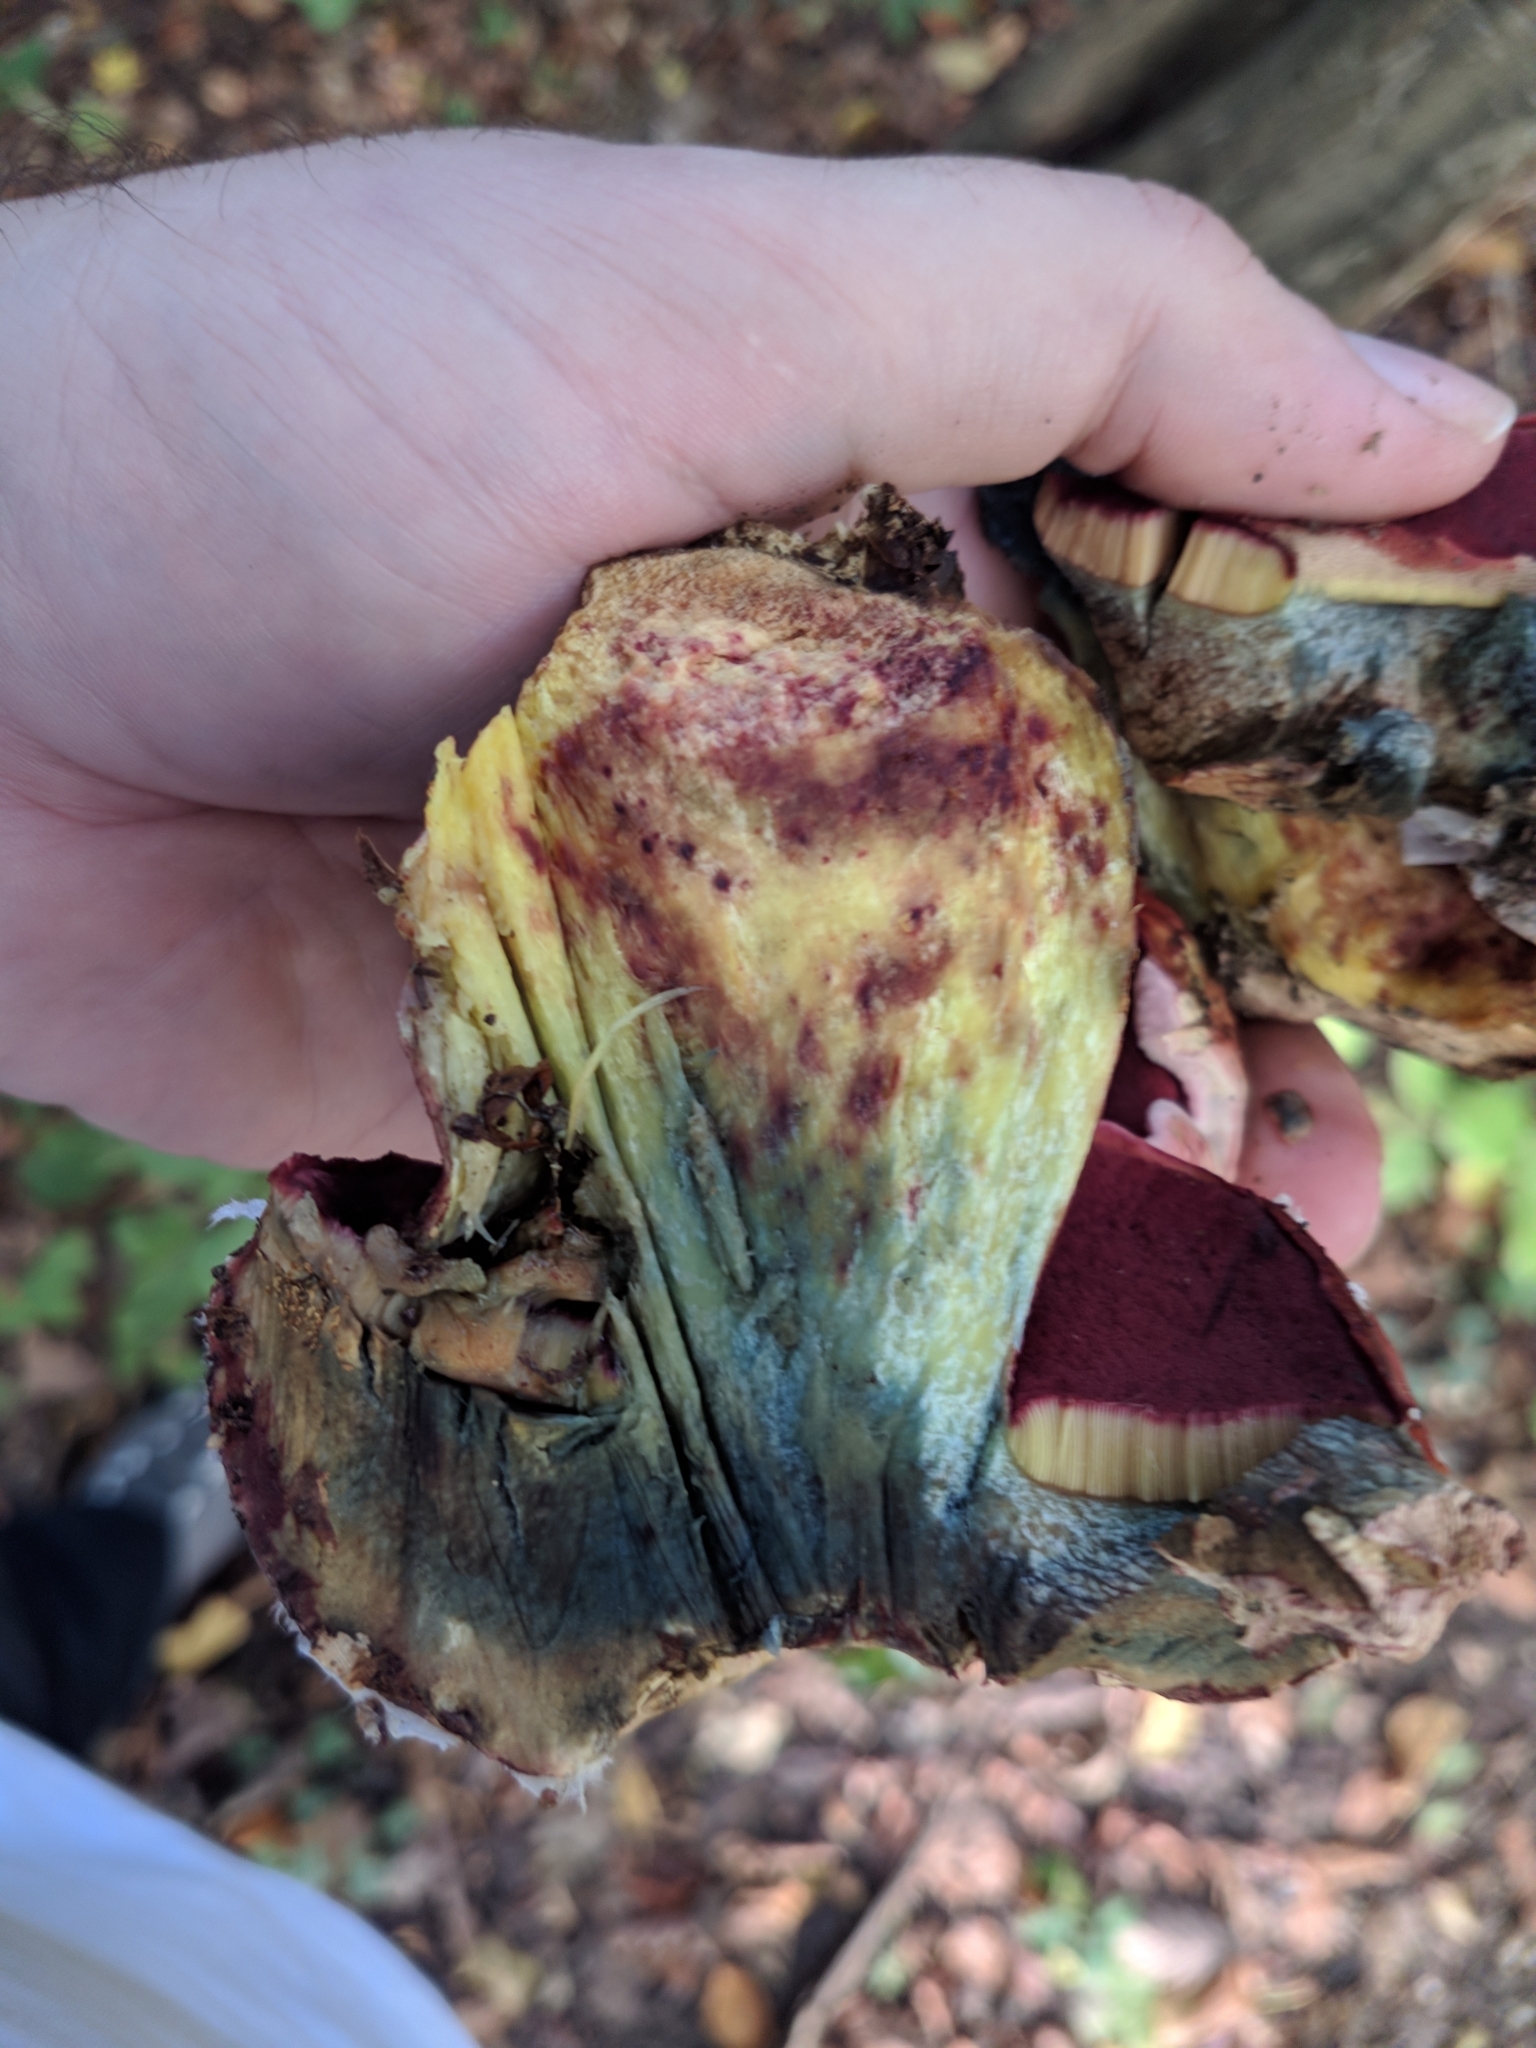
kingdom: Fungi
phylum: Basidiomycota
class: Agaricomycetes
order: Boletales
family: Boletaceae
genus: Rubroboletus
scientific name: Rubroboletus rhodoxanthus
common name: Ruddy bolete
